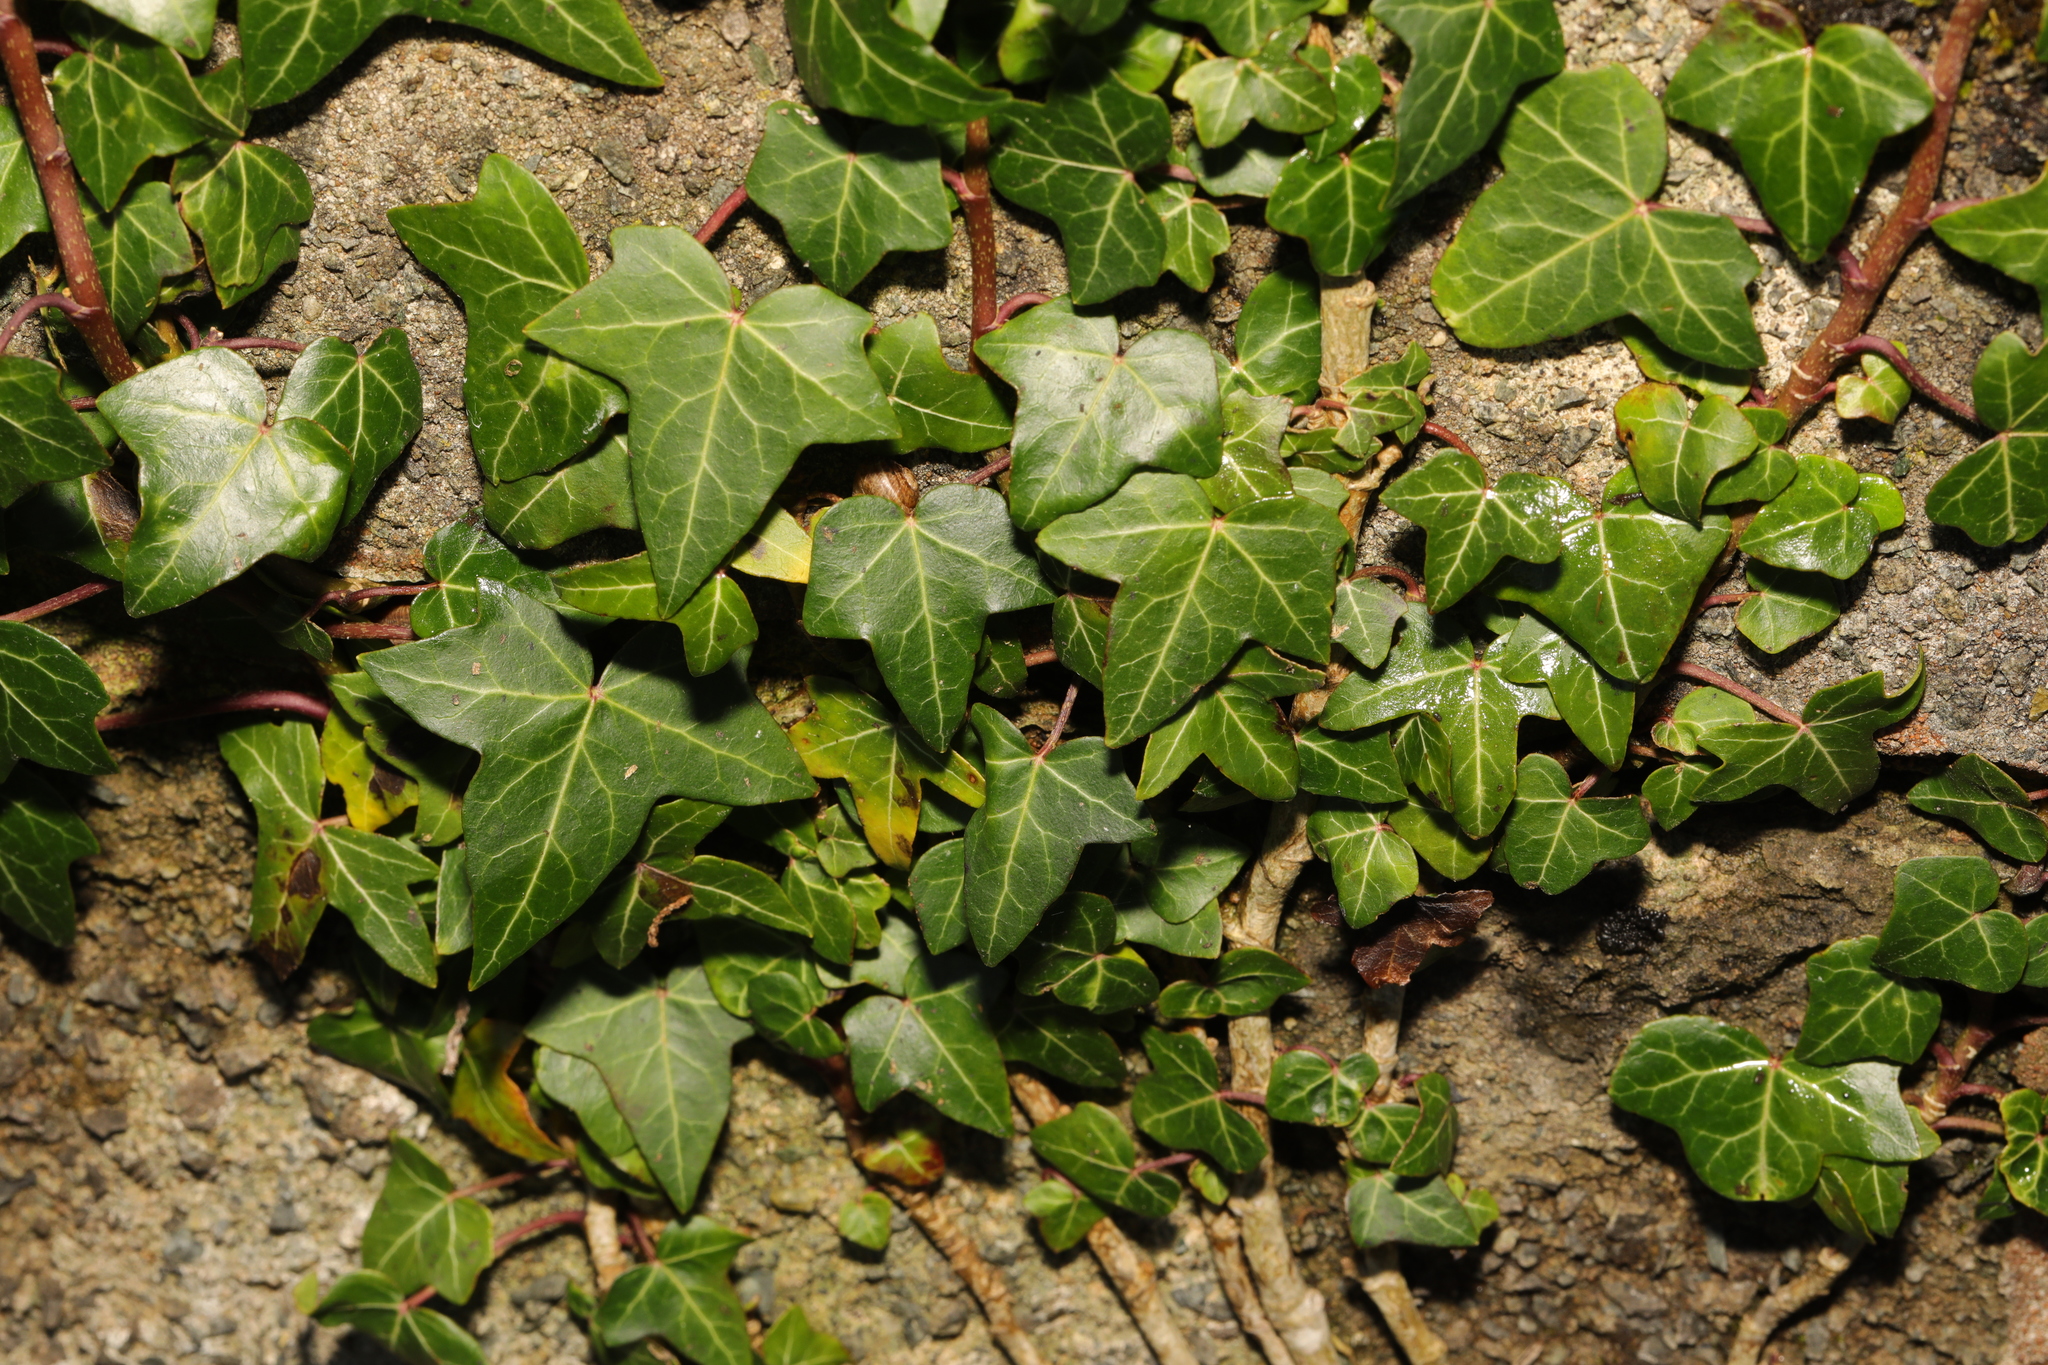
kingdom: Plantae
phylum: Tracheophyta
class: Magnoliopsida
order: Apiales
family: Araliaceae
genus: Hedera
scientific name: Hedera helix
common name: Ivy
